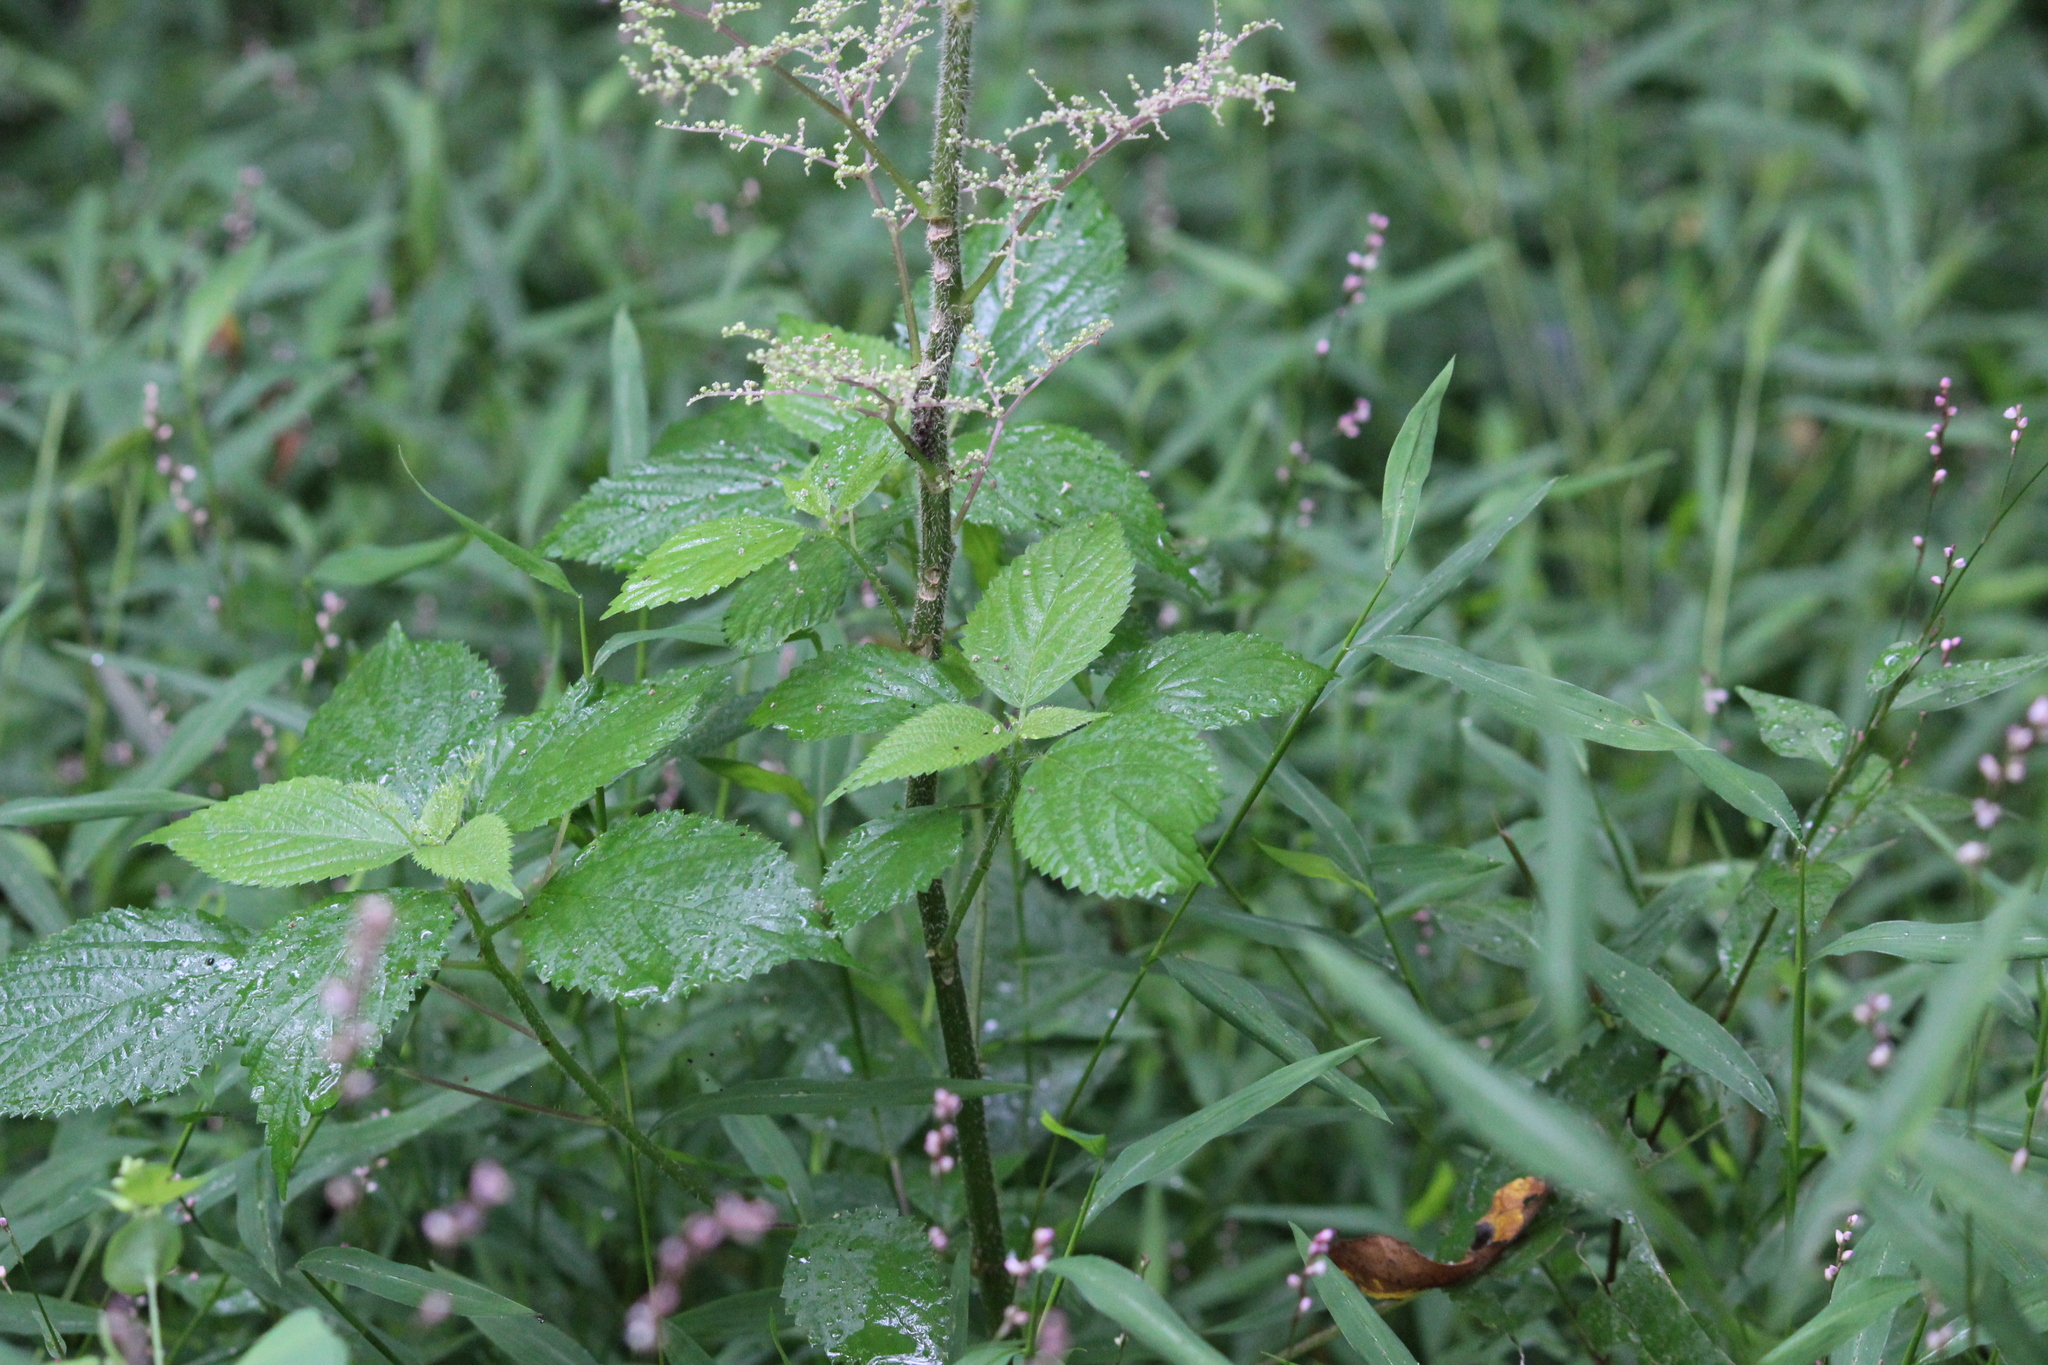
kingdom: Plantae
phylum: Tracheophyta
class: Magnoliopsida
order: Rosales
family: Urticaceae
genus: Laportea
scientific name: Laportea canadensis
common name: Canada nettle
